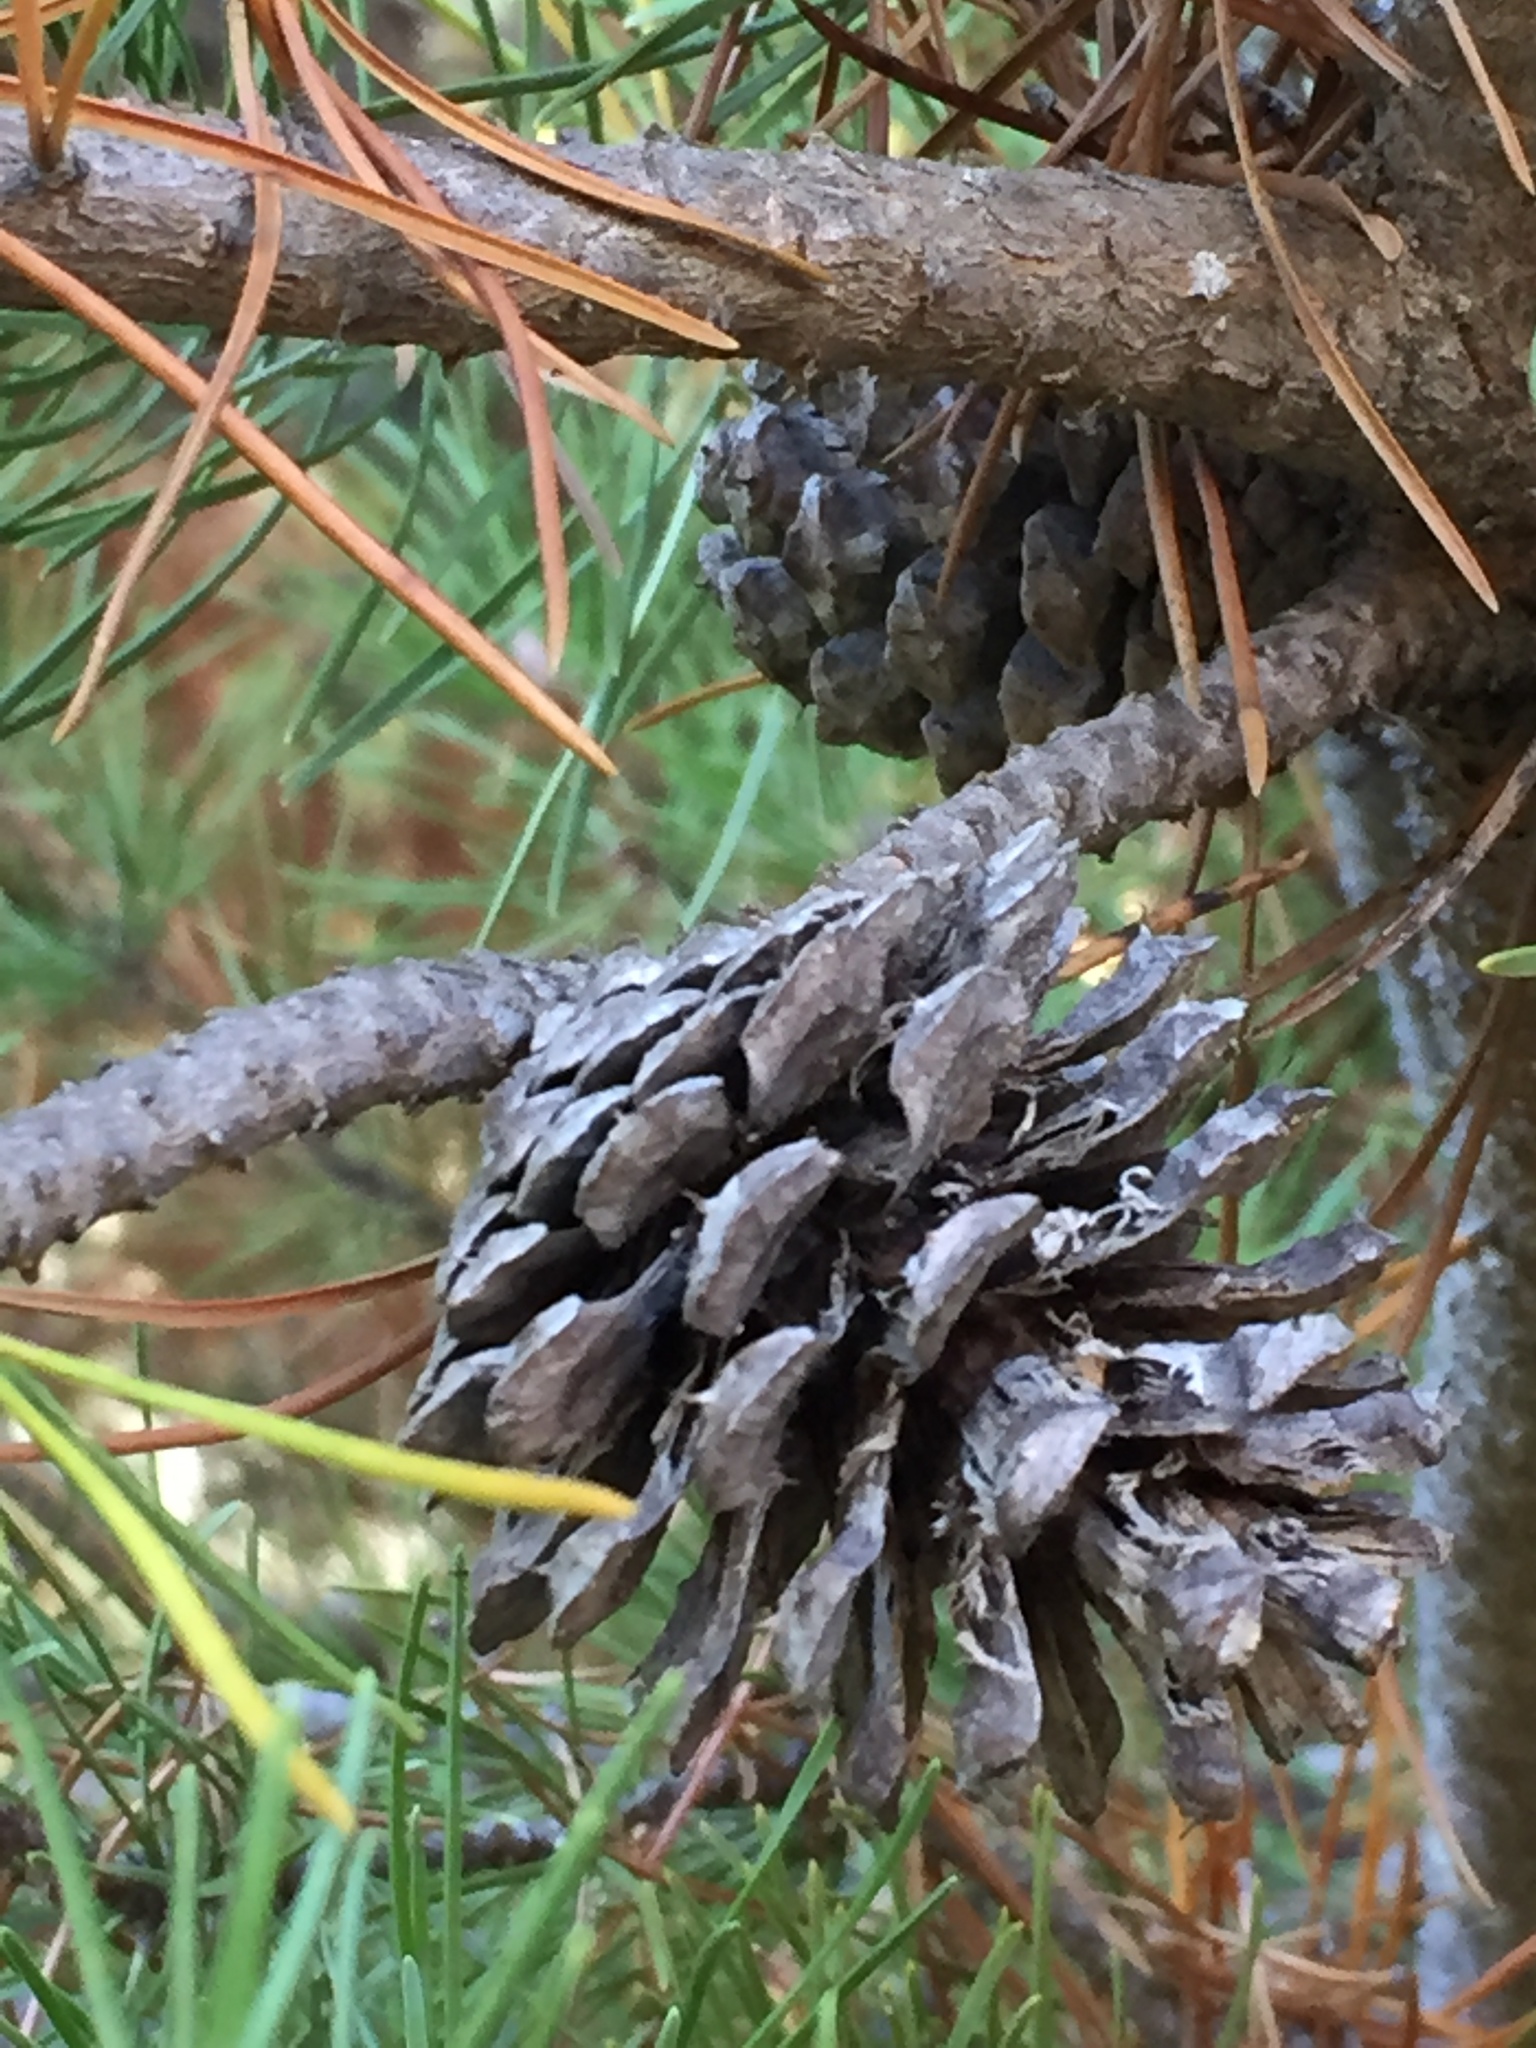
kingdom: Plantae
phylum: Tracheophyta
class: Pinopsida
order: Pinales
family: Pinaceae
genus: Pinus
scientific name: Pinus contorta
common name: Lodgepole pine
